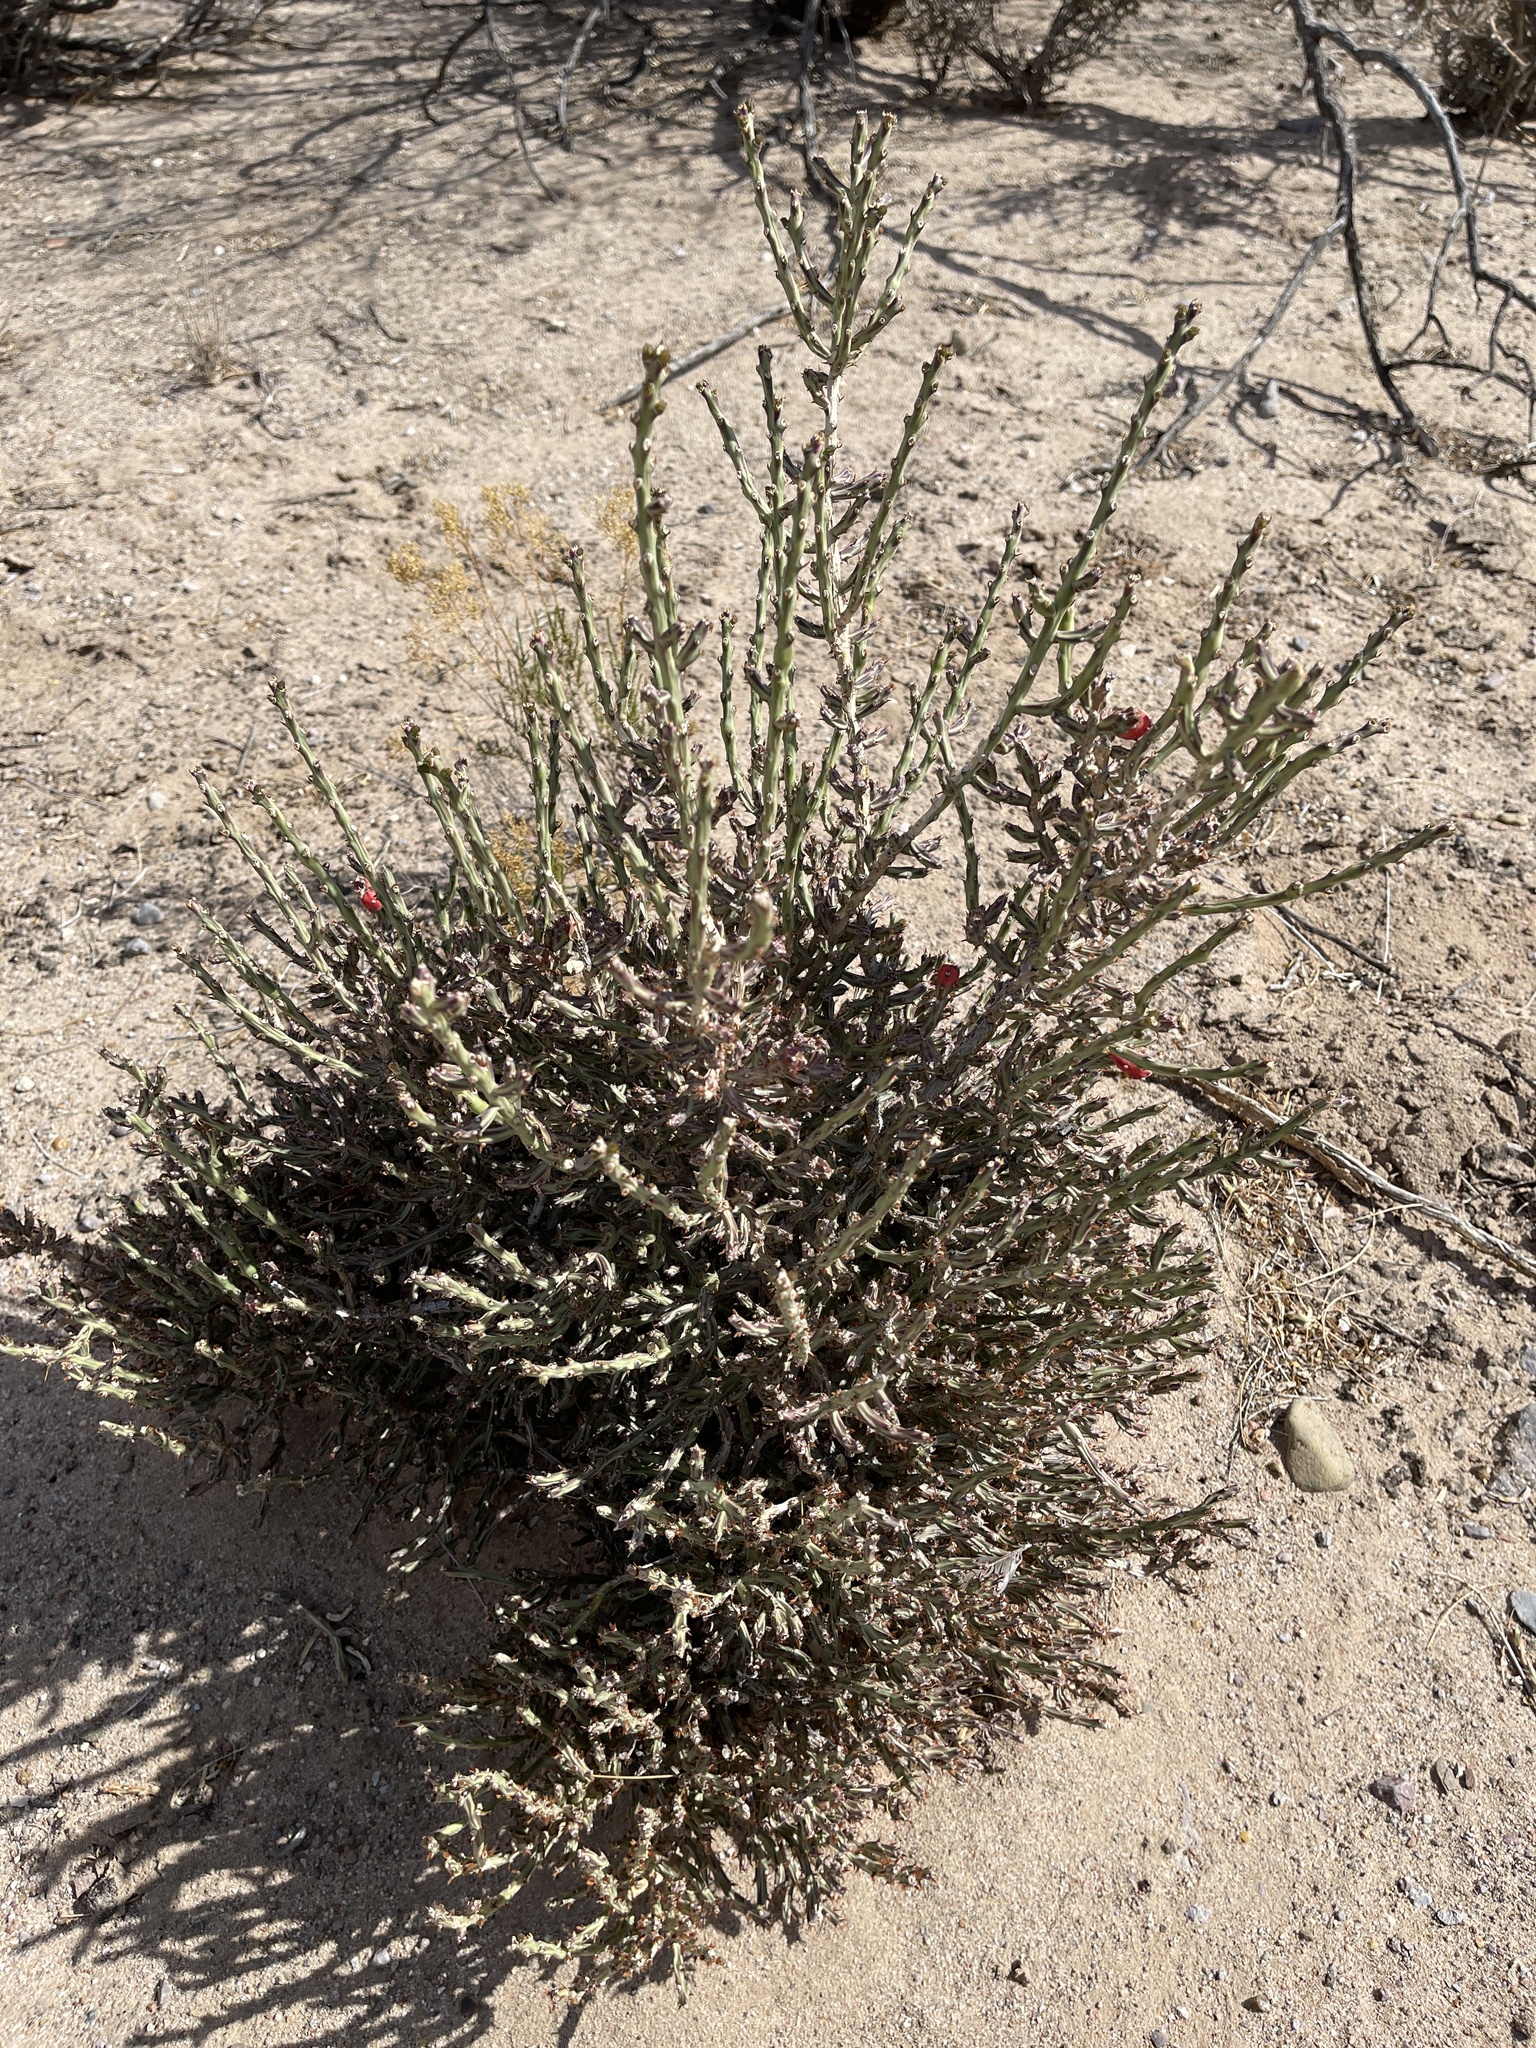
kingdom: Plantae
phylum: Tracheophyta
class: Magnoliopsida
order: Caryophyllales
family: Cactaceae
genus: Cylindropuntia
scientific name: Cylindropuntia leptocaulis
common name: Christmas cactus
